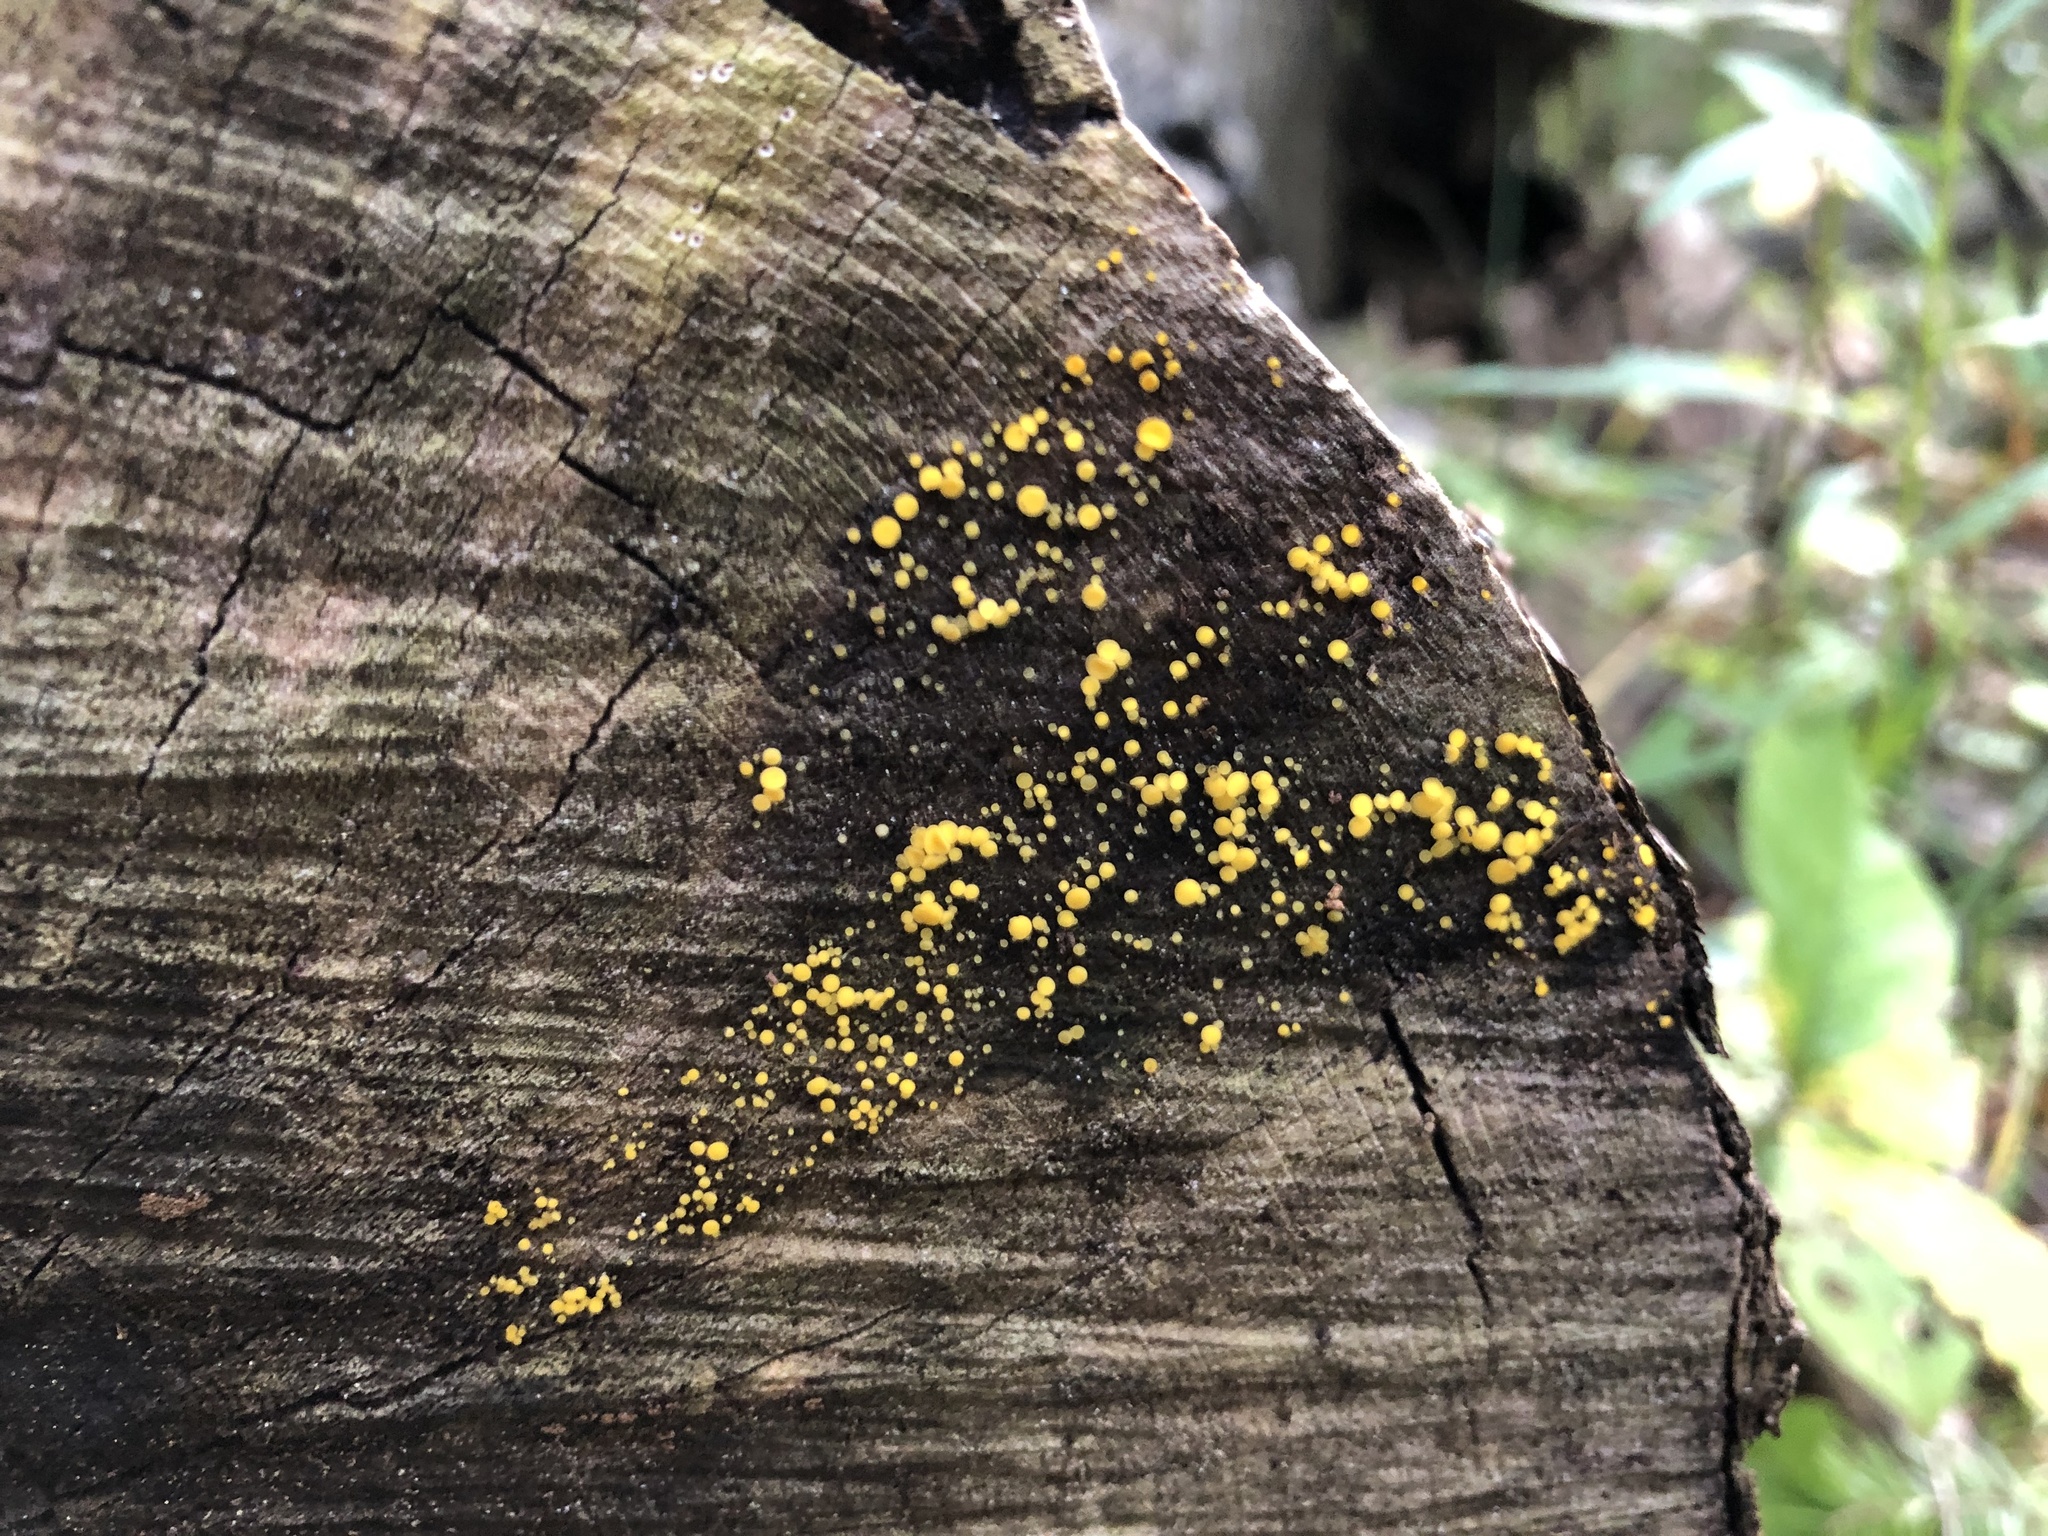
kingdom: Fungi
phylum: Ascomycota
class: Leotiomycetes
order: Helotiales
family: Pezizellaceae
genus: Calycina
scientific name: Calycina citrina
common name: Yellow fairy cups
